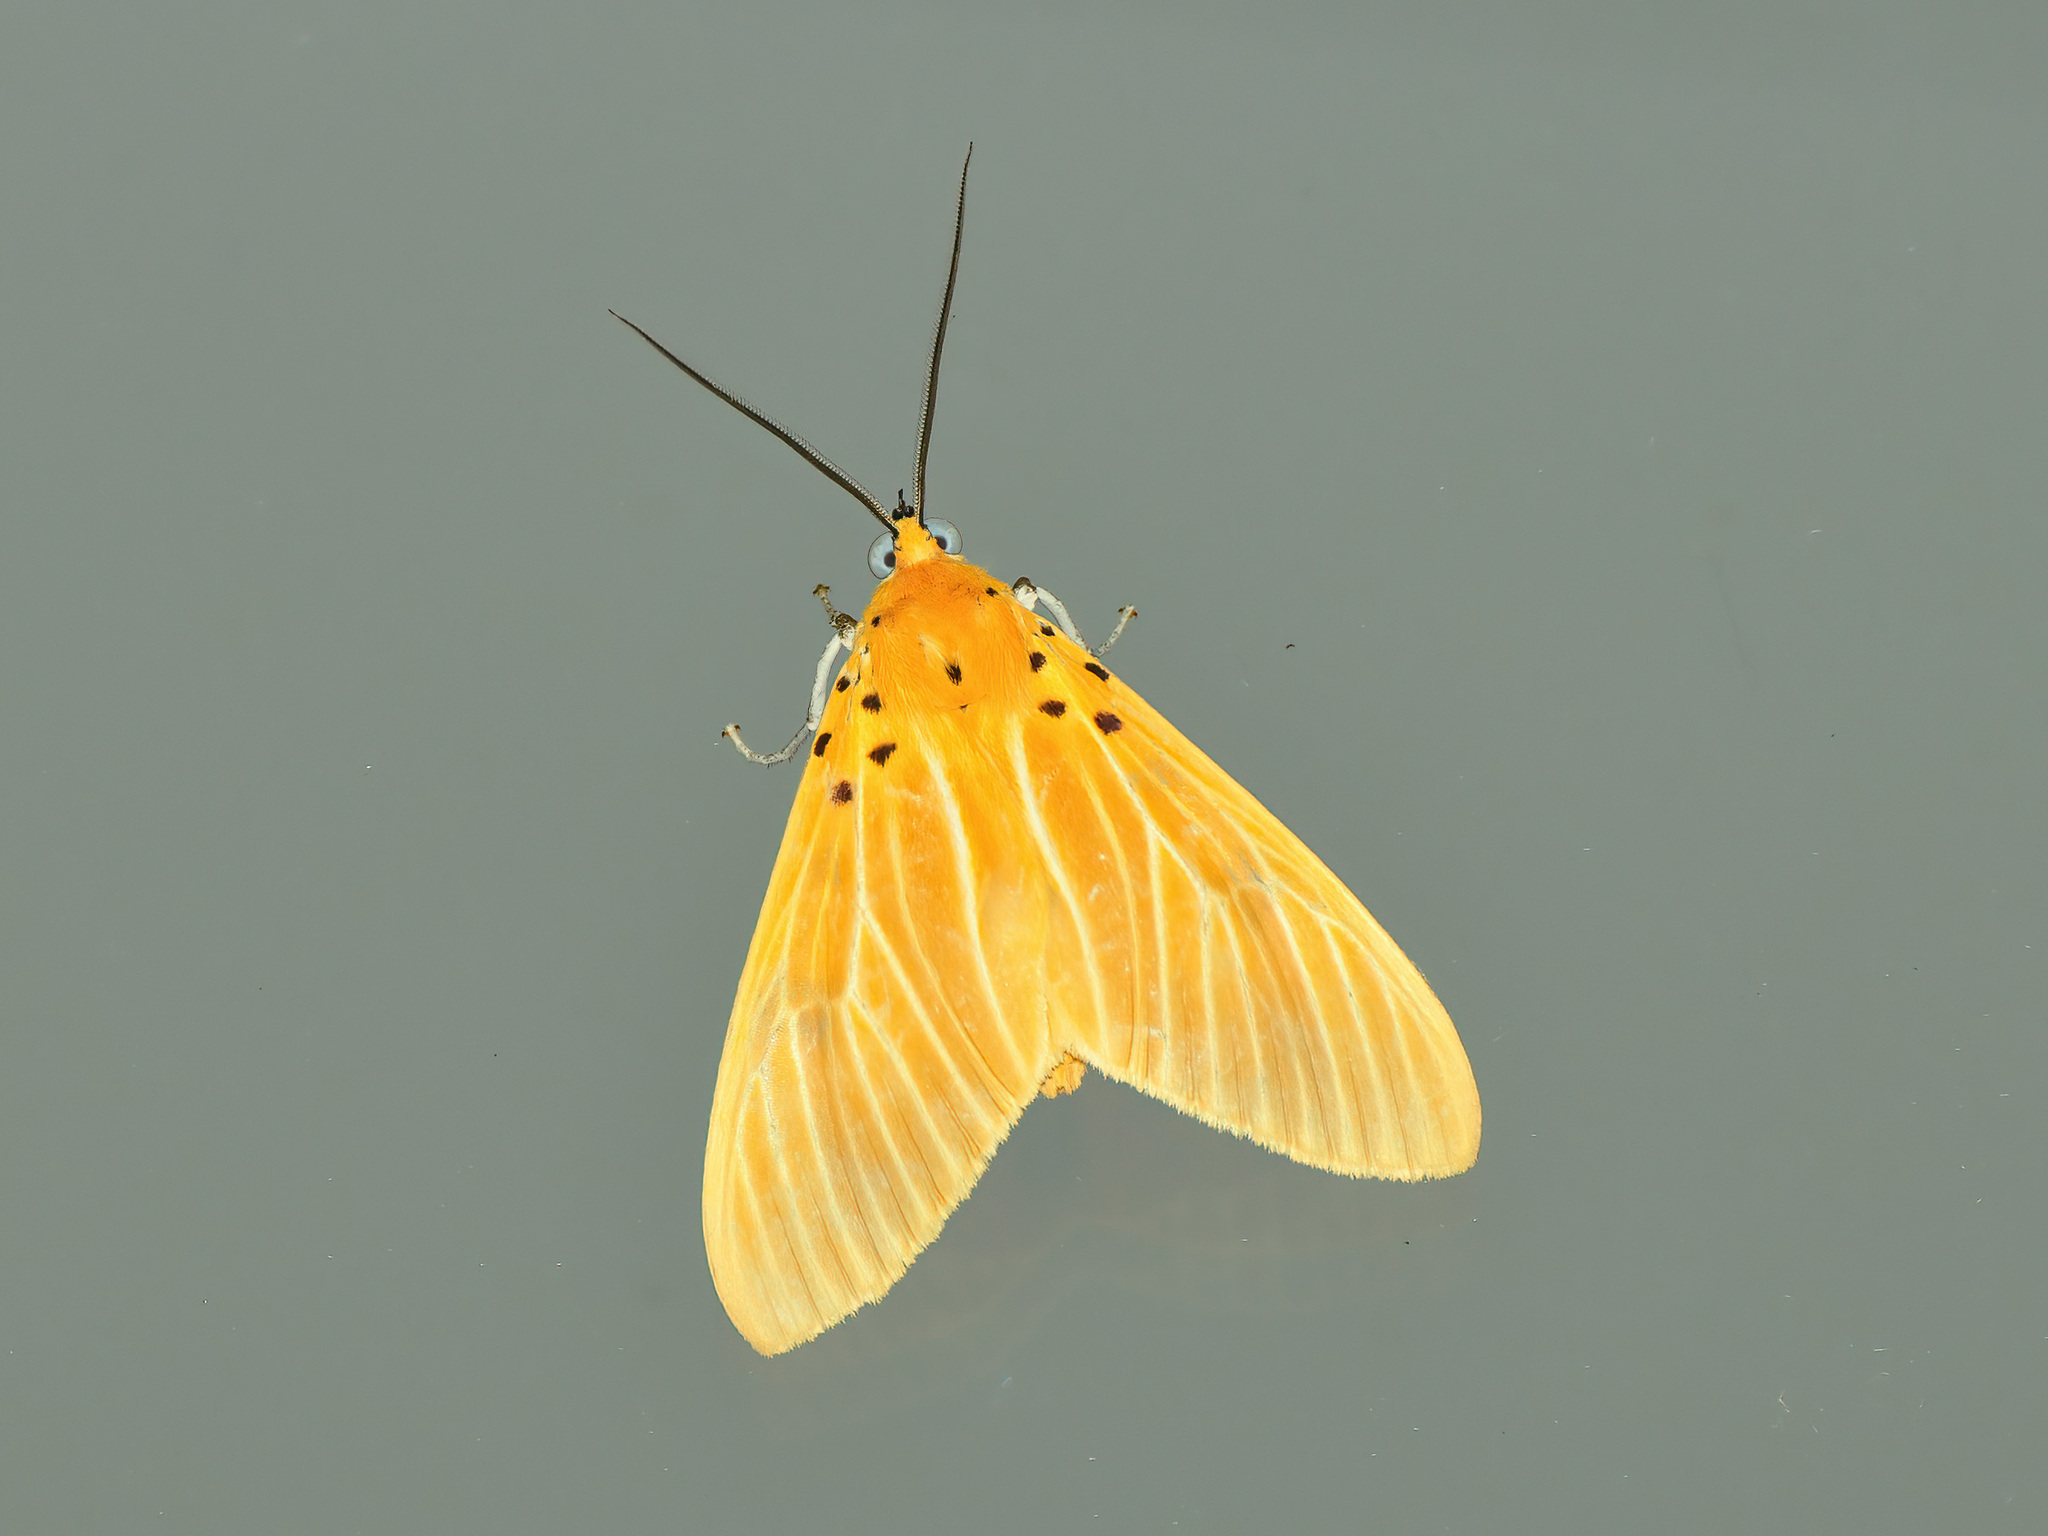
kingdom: Animalia
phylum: Arthropoda
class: Insecta
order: Lepidoptera
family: Erebidae
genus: Asota
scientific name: Asota egens
